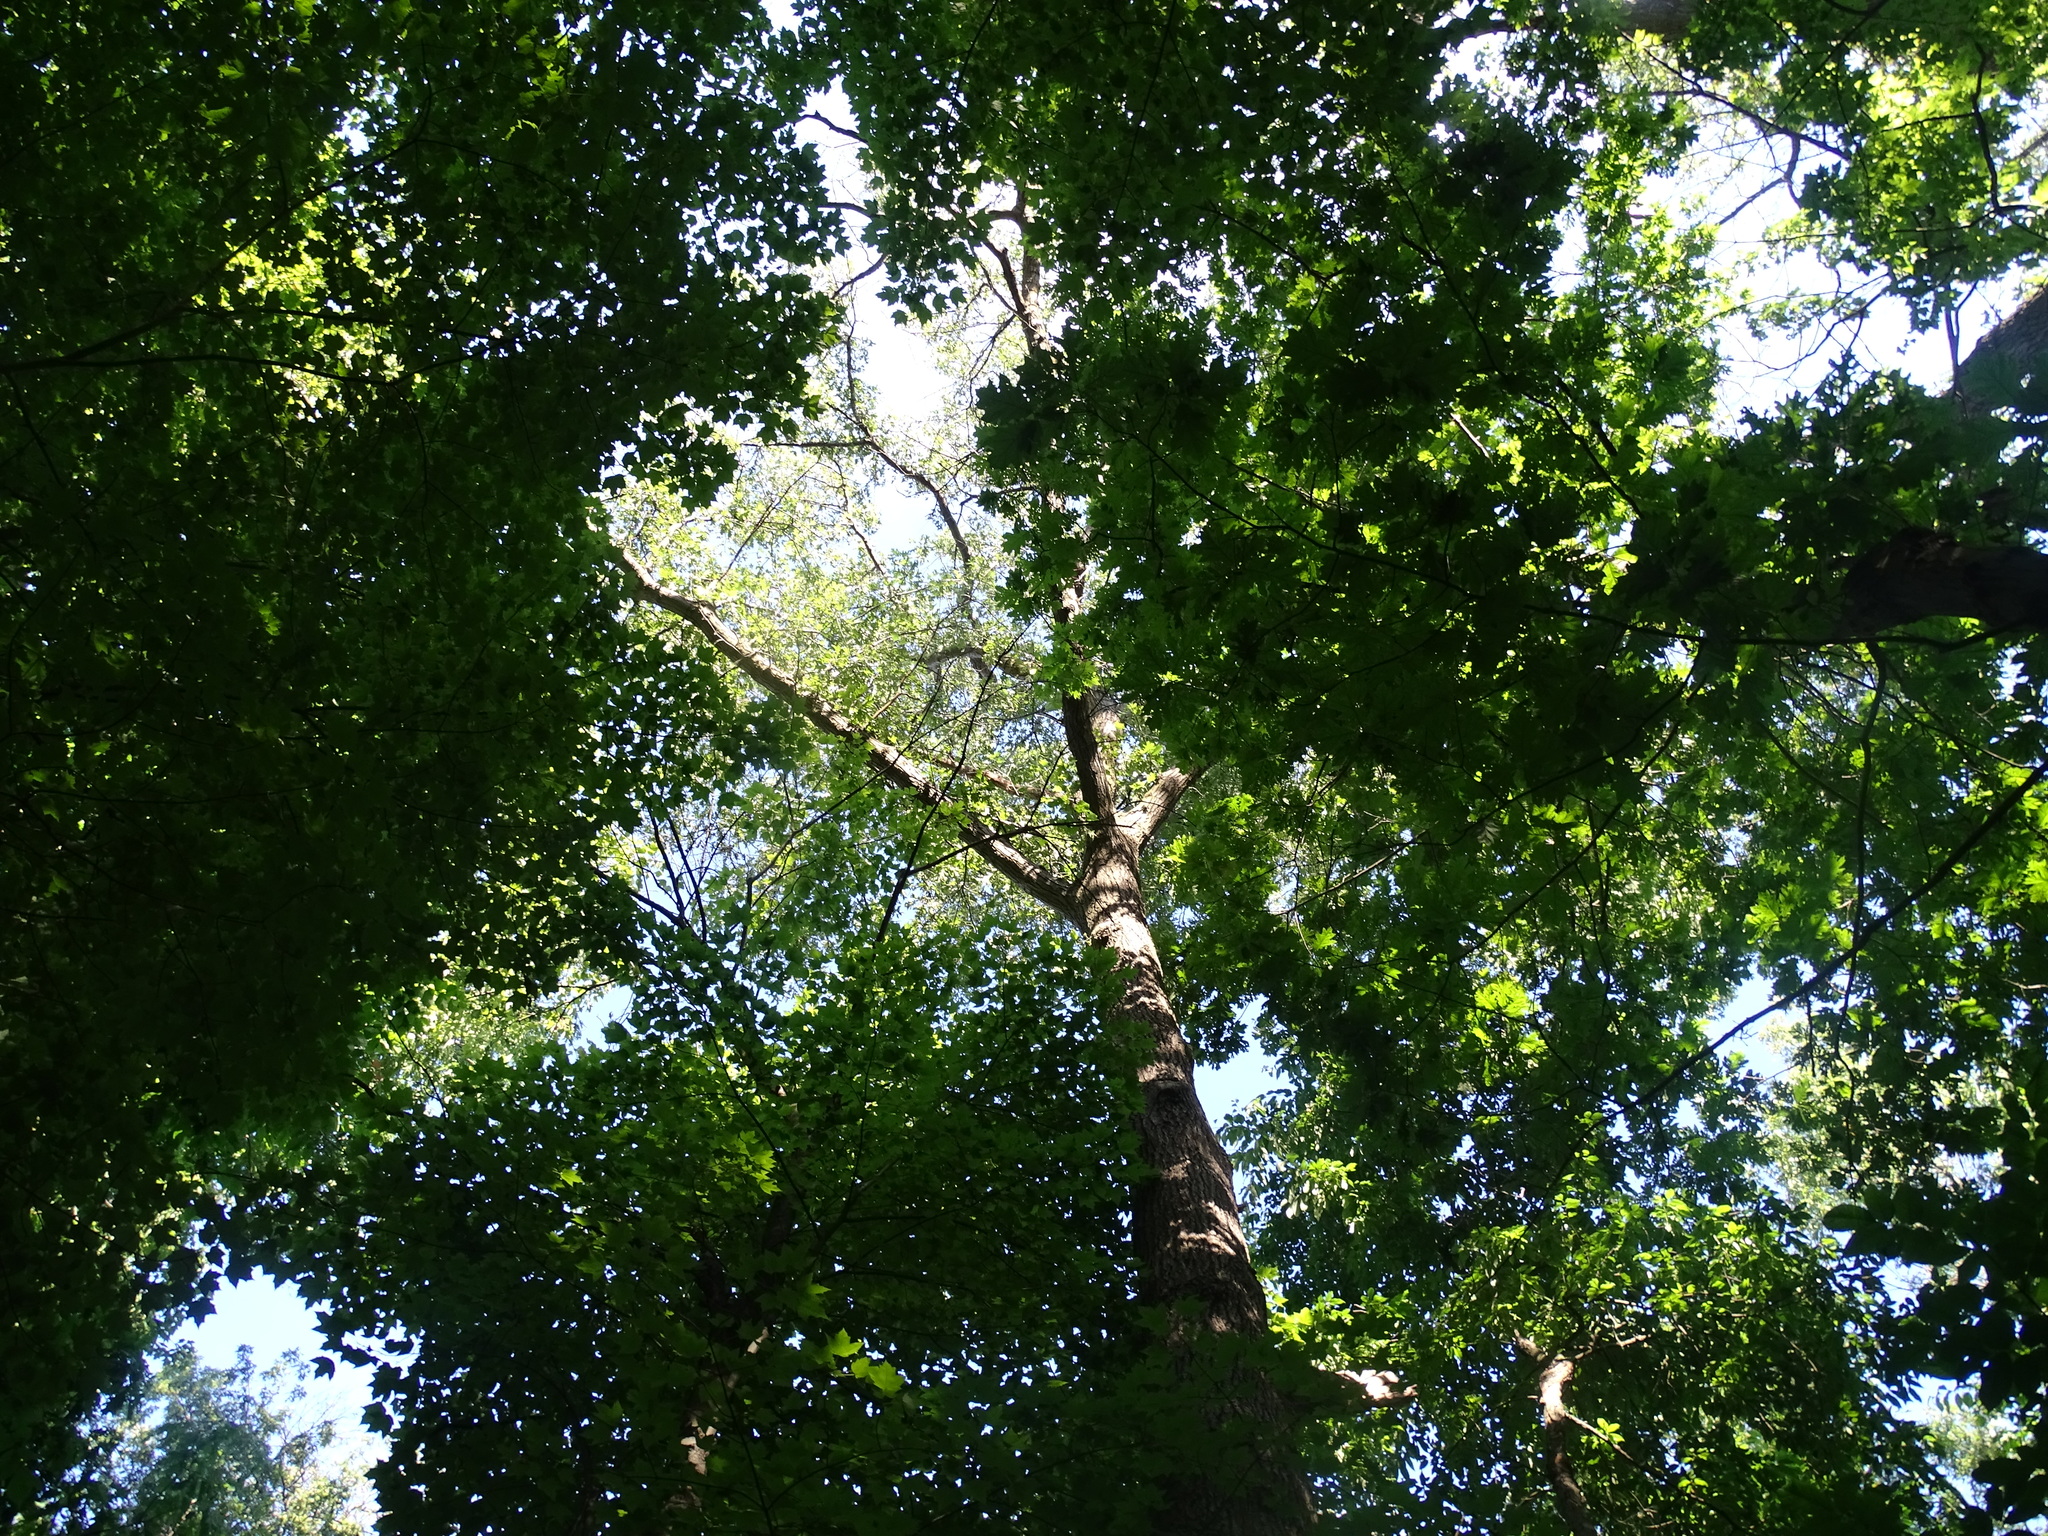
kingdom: Plantae
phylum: Tracheophyta
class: Magnoliopsida
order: Fagales
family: Fagaceae
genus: Quercus
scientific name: Quercus velutina
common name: Black oak
